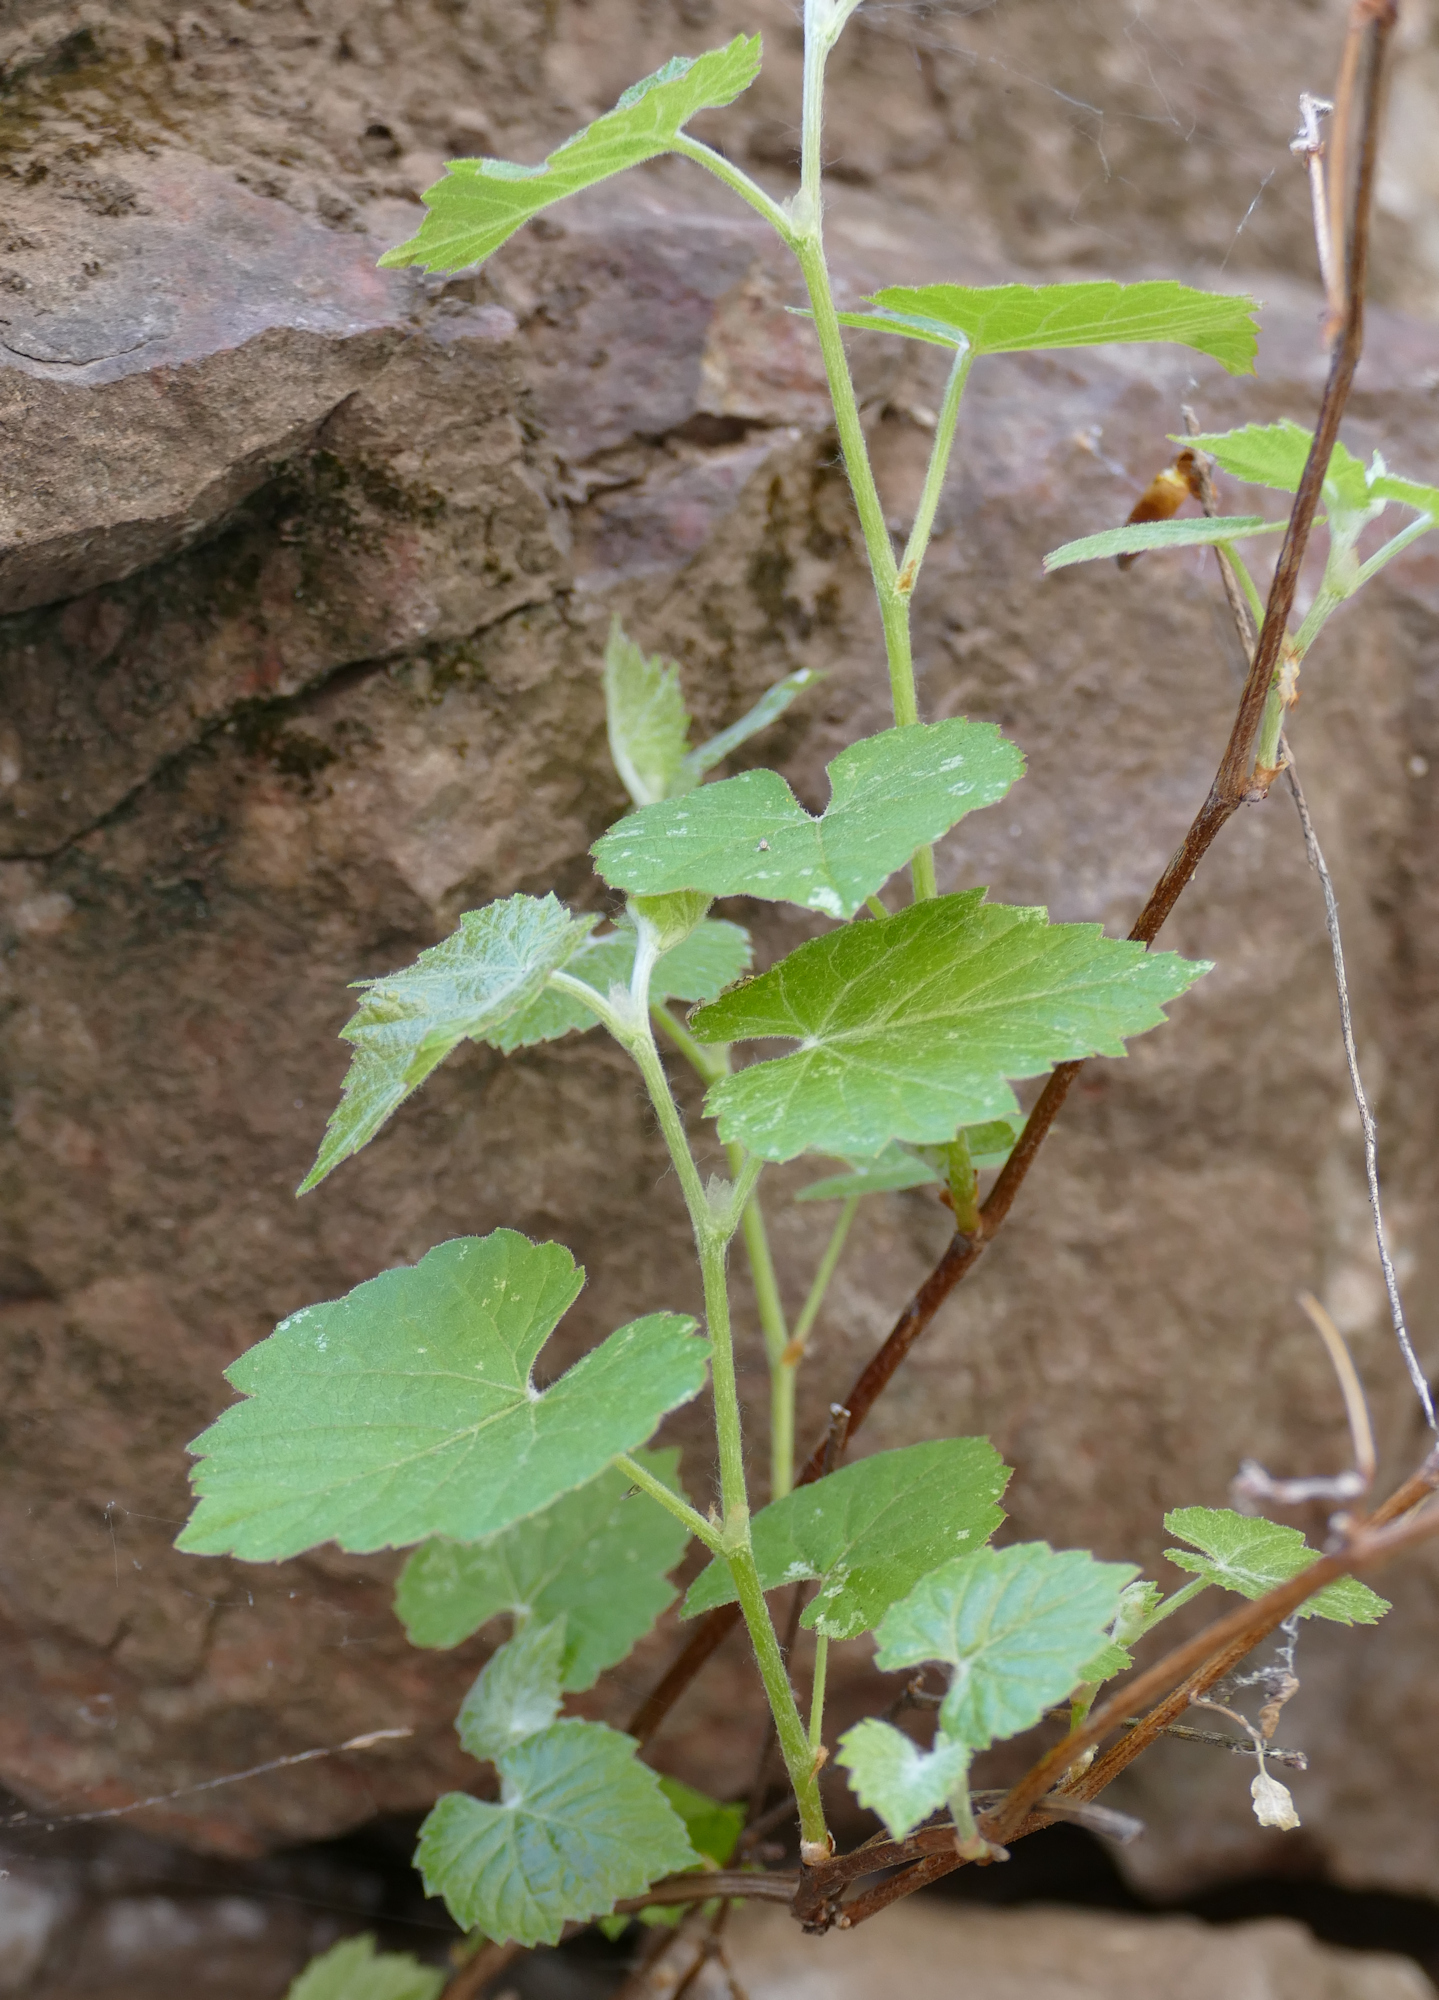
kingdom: Plantae
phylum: Tracheophyta
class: Magnoliopsida
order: Vitales
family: Vitaceae
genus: Vitis
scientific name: Vitis arizonica
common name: Canyon grape
